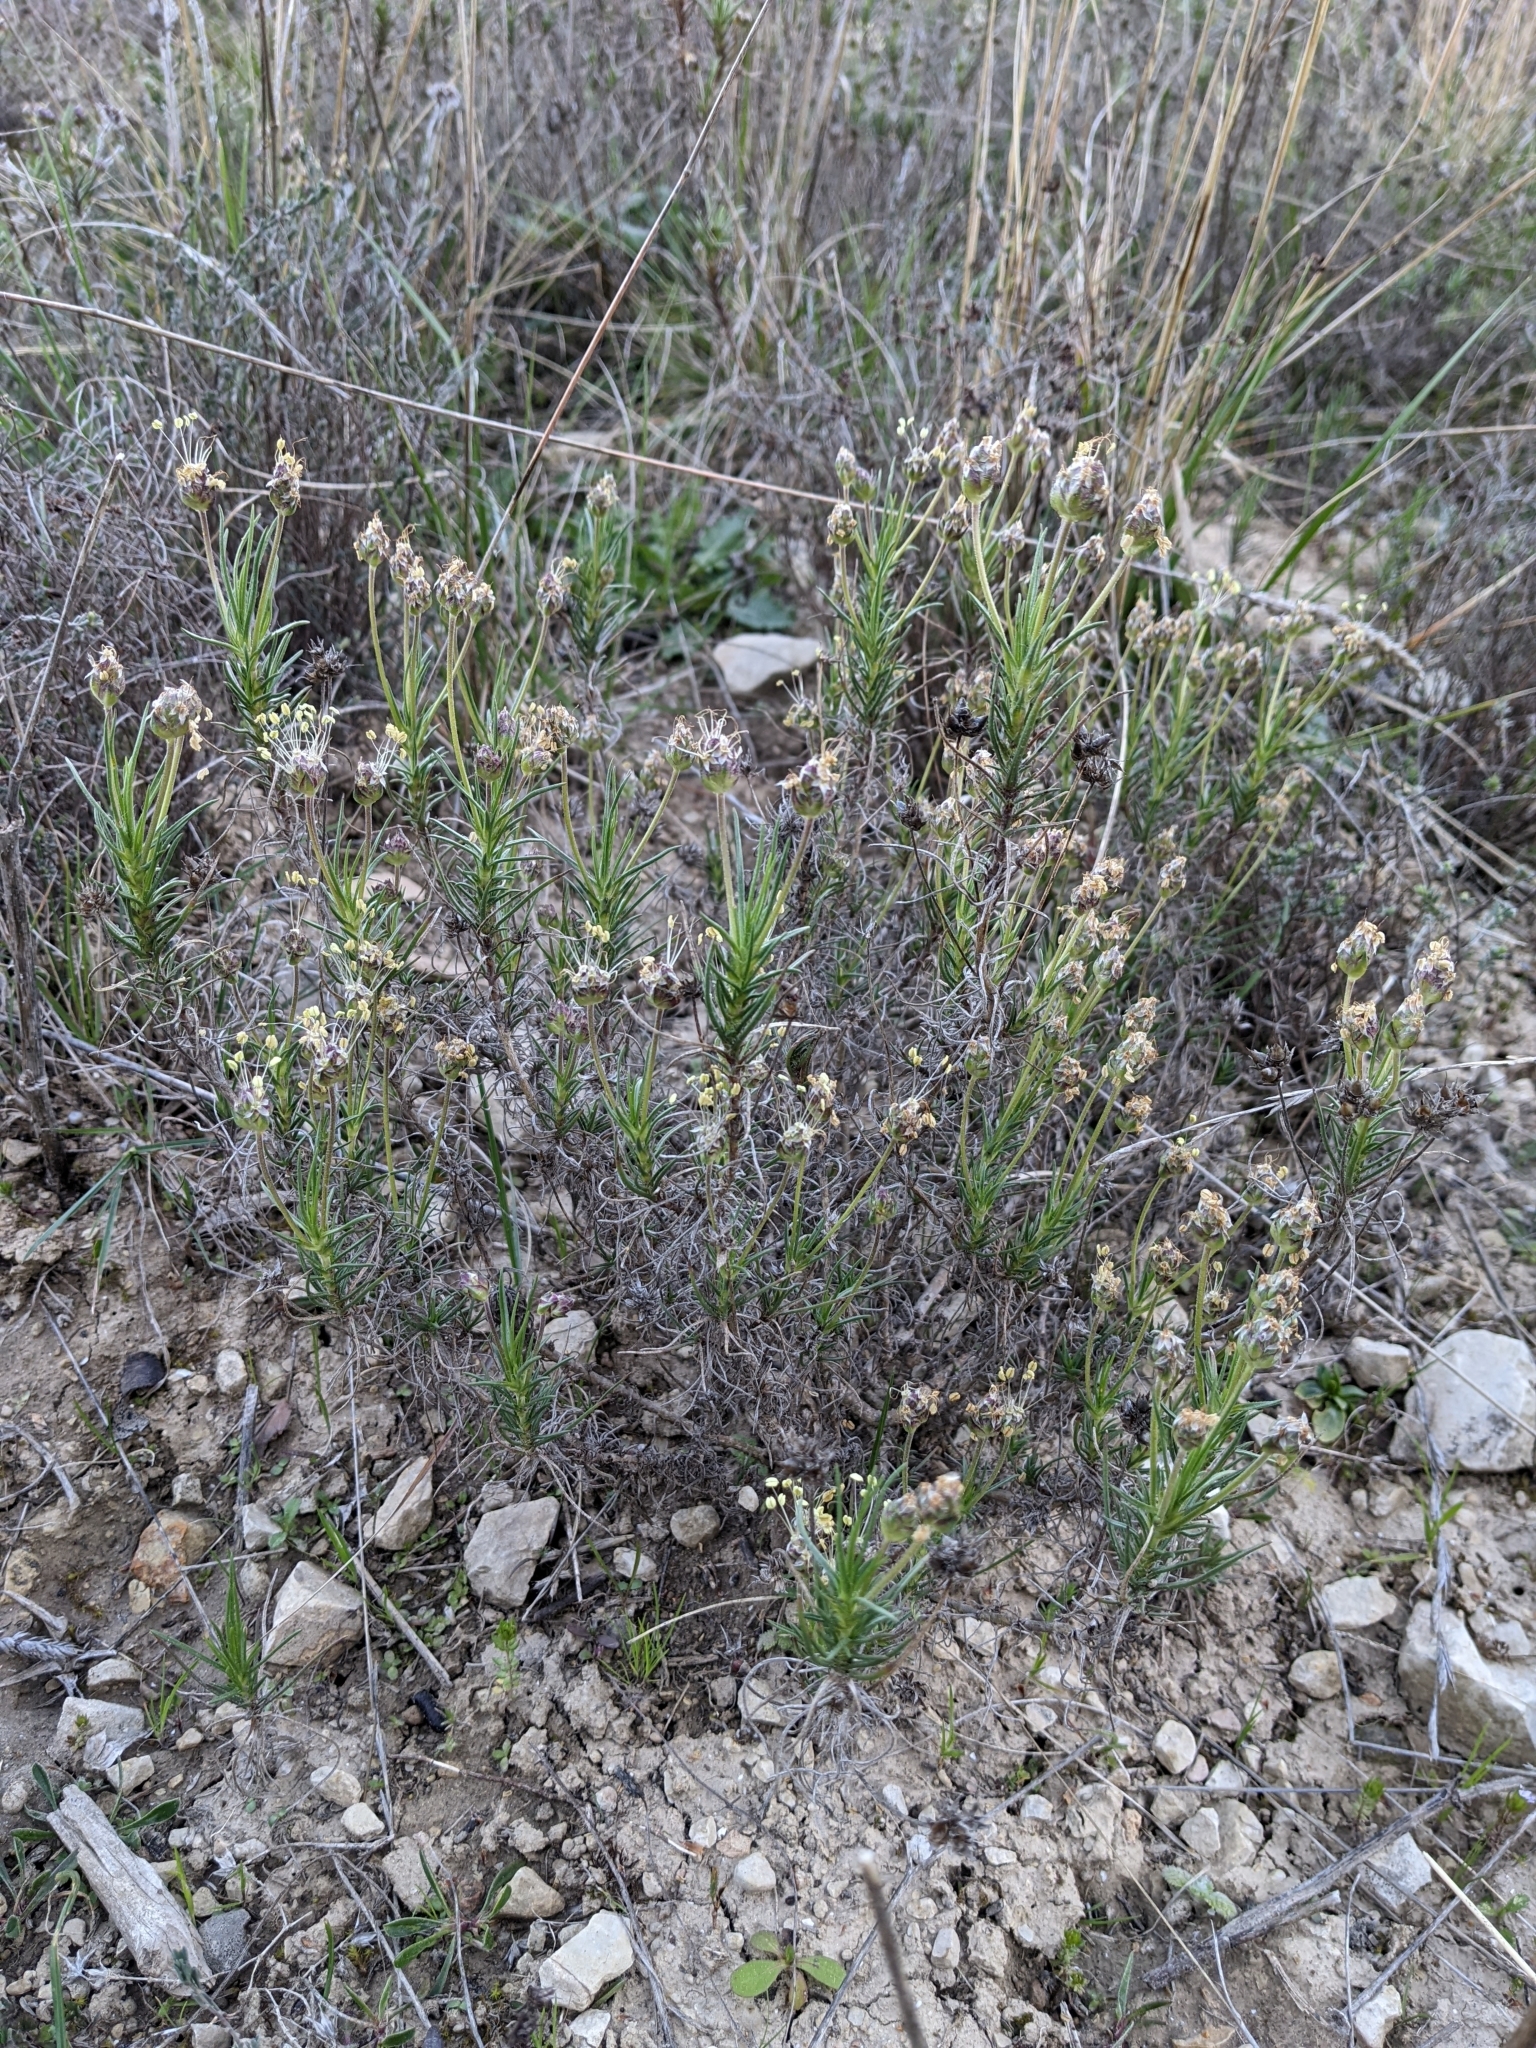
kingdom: Plantae
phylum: Tracheophyta
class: Magnoliopsida
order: Lamiales
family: Plantaginaceae
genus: Plantago
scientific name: Plantago sempervirens
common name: Shrubby plantain
